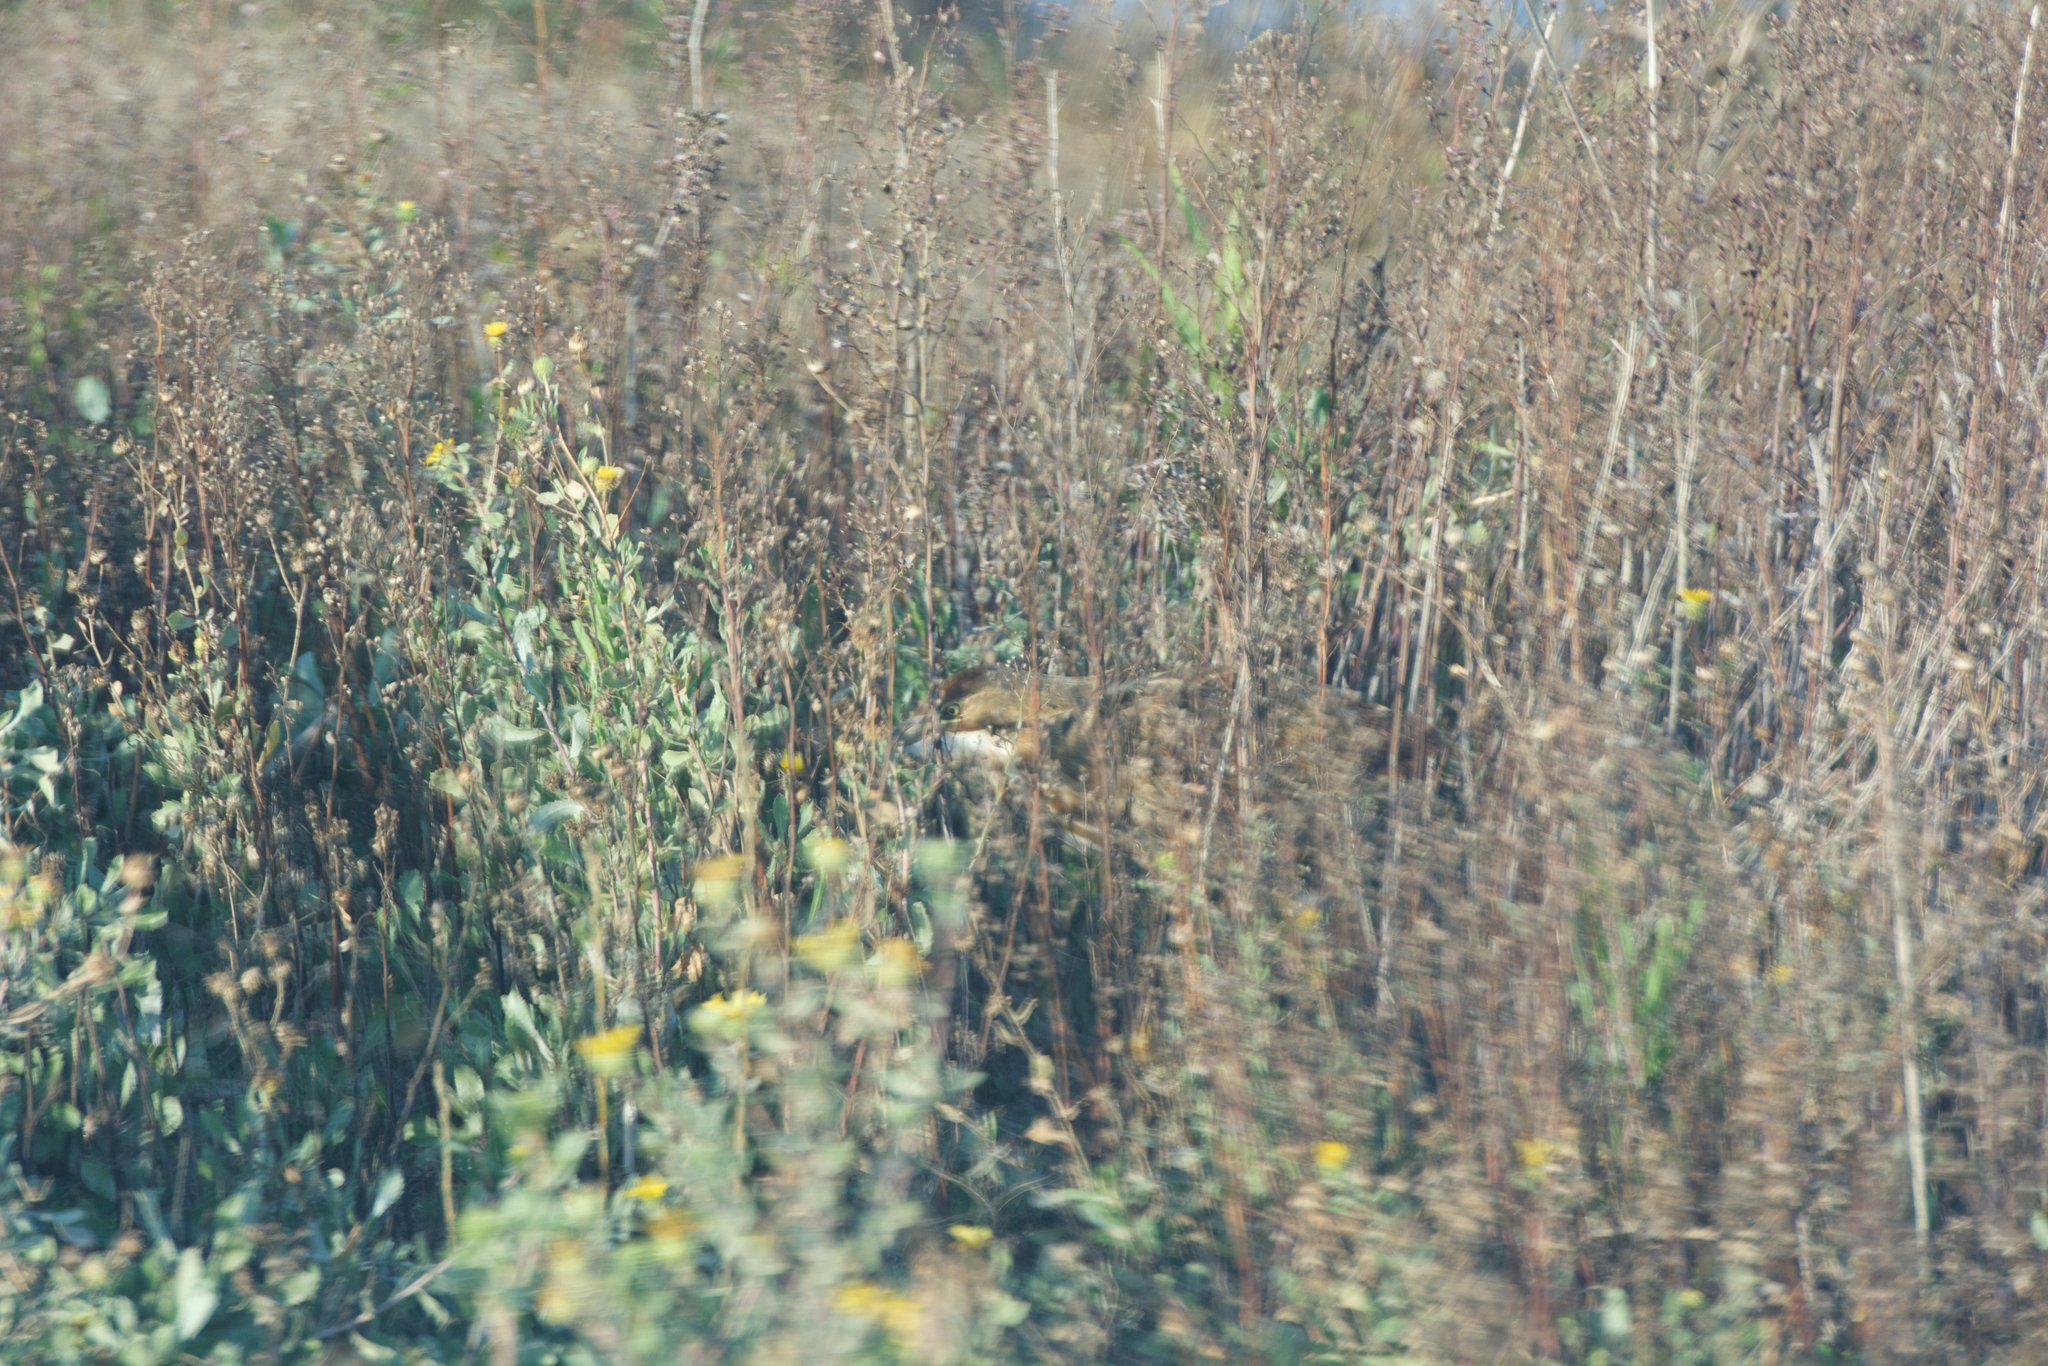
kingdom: Animalia
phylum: Chordata
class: Aves
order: Pelecaniformes
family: Ardeidae
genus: Botaurus
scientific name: Botaurus lentiginosus
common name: American bittern
